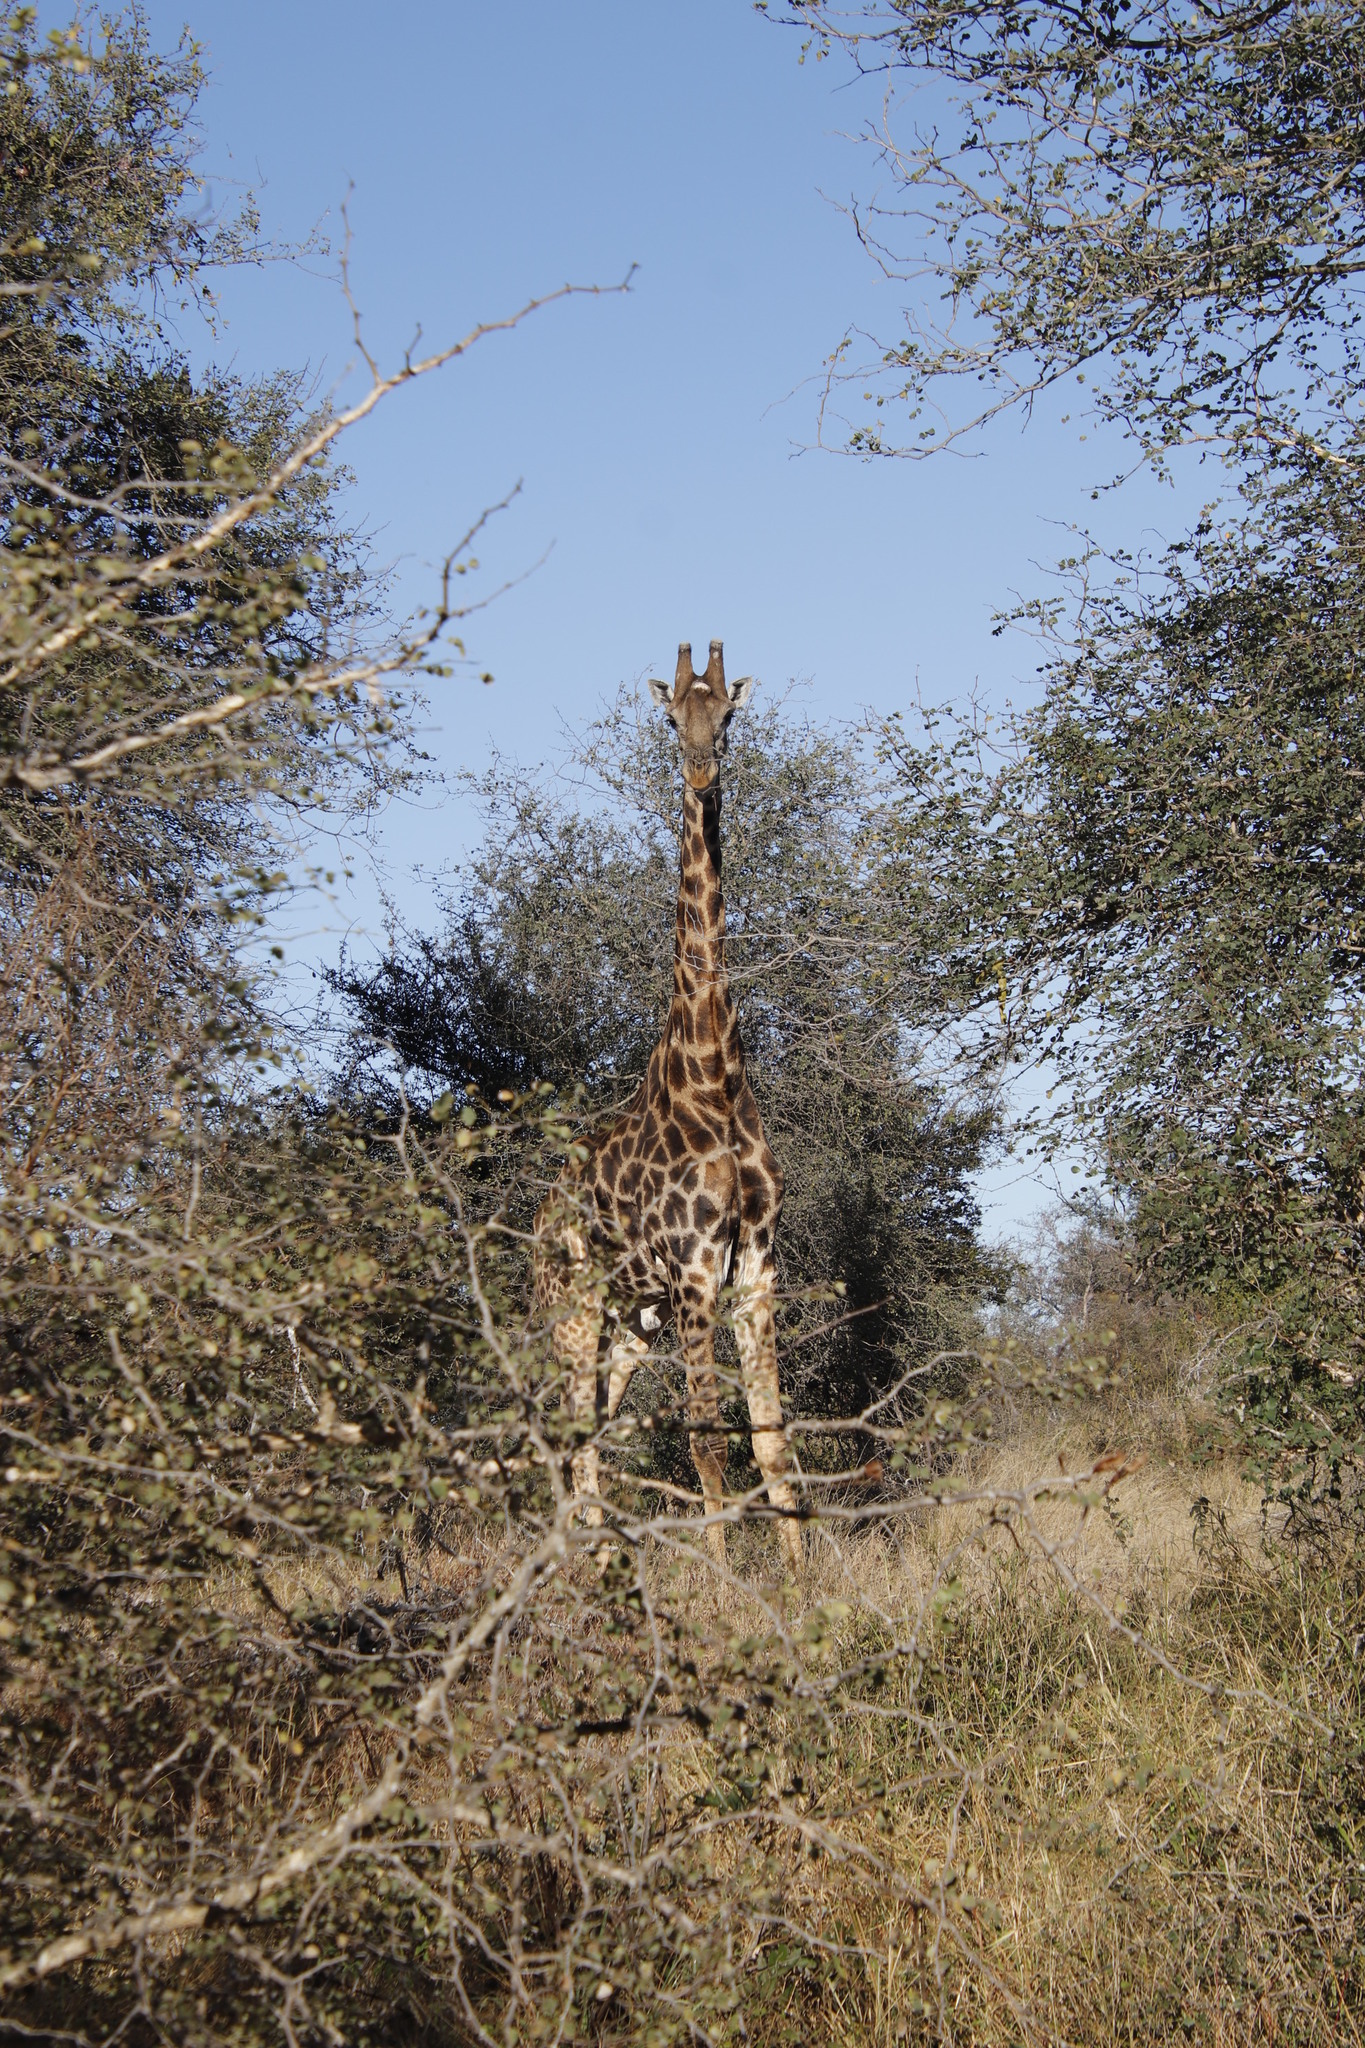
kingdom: Animalia
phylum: Chordata
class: Mammalia
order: Artiodactyla
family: Giraffidae
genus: Giraffa
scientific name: Giraffa giraffa
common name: Southern giraffe
